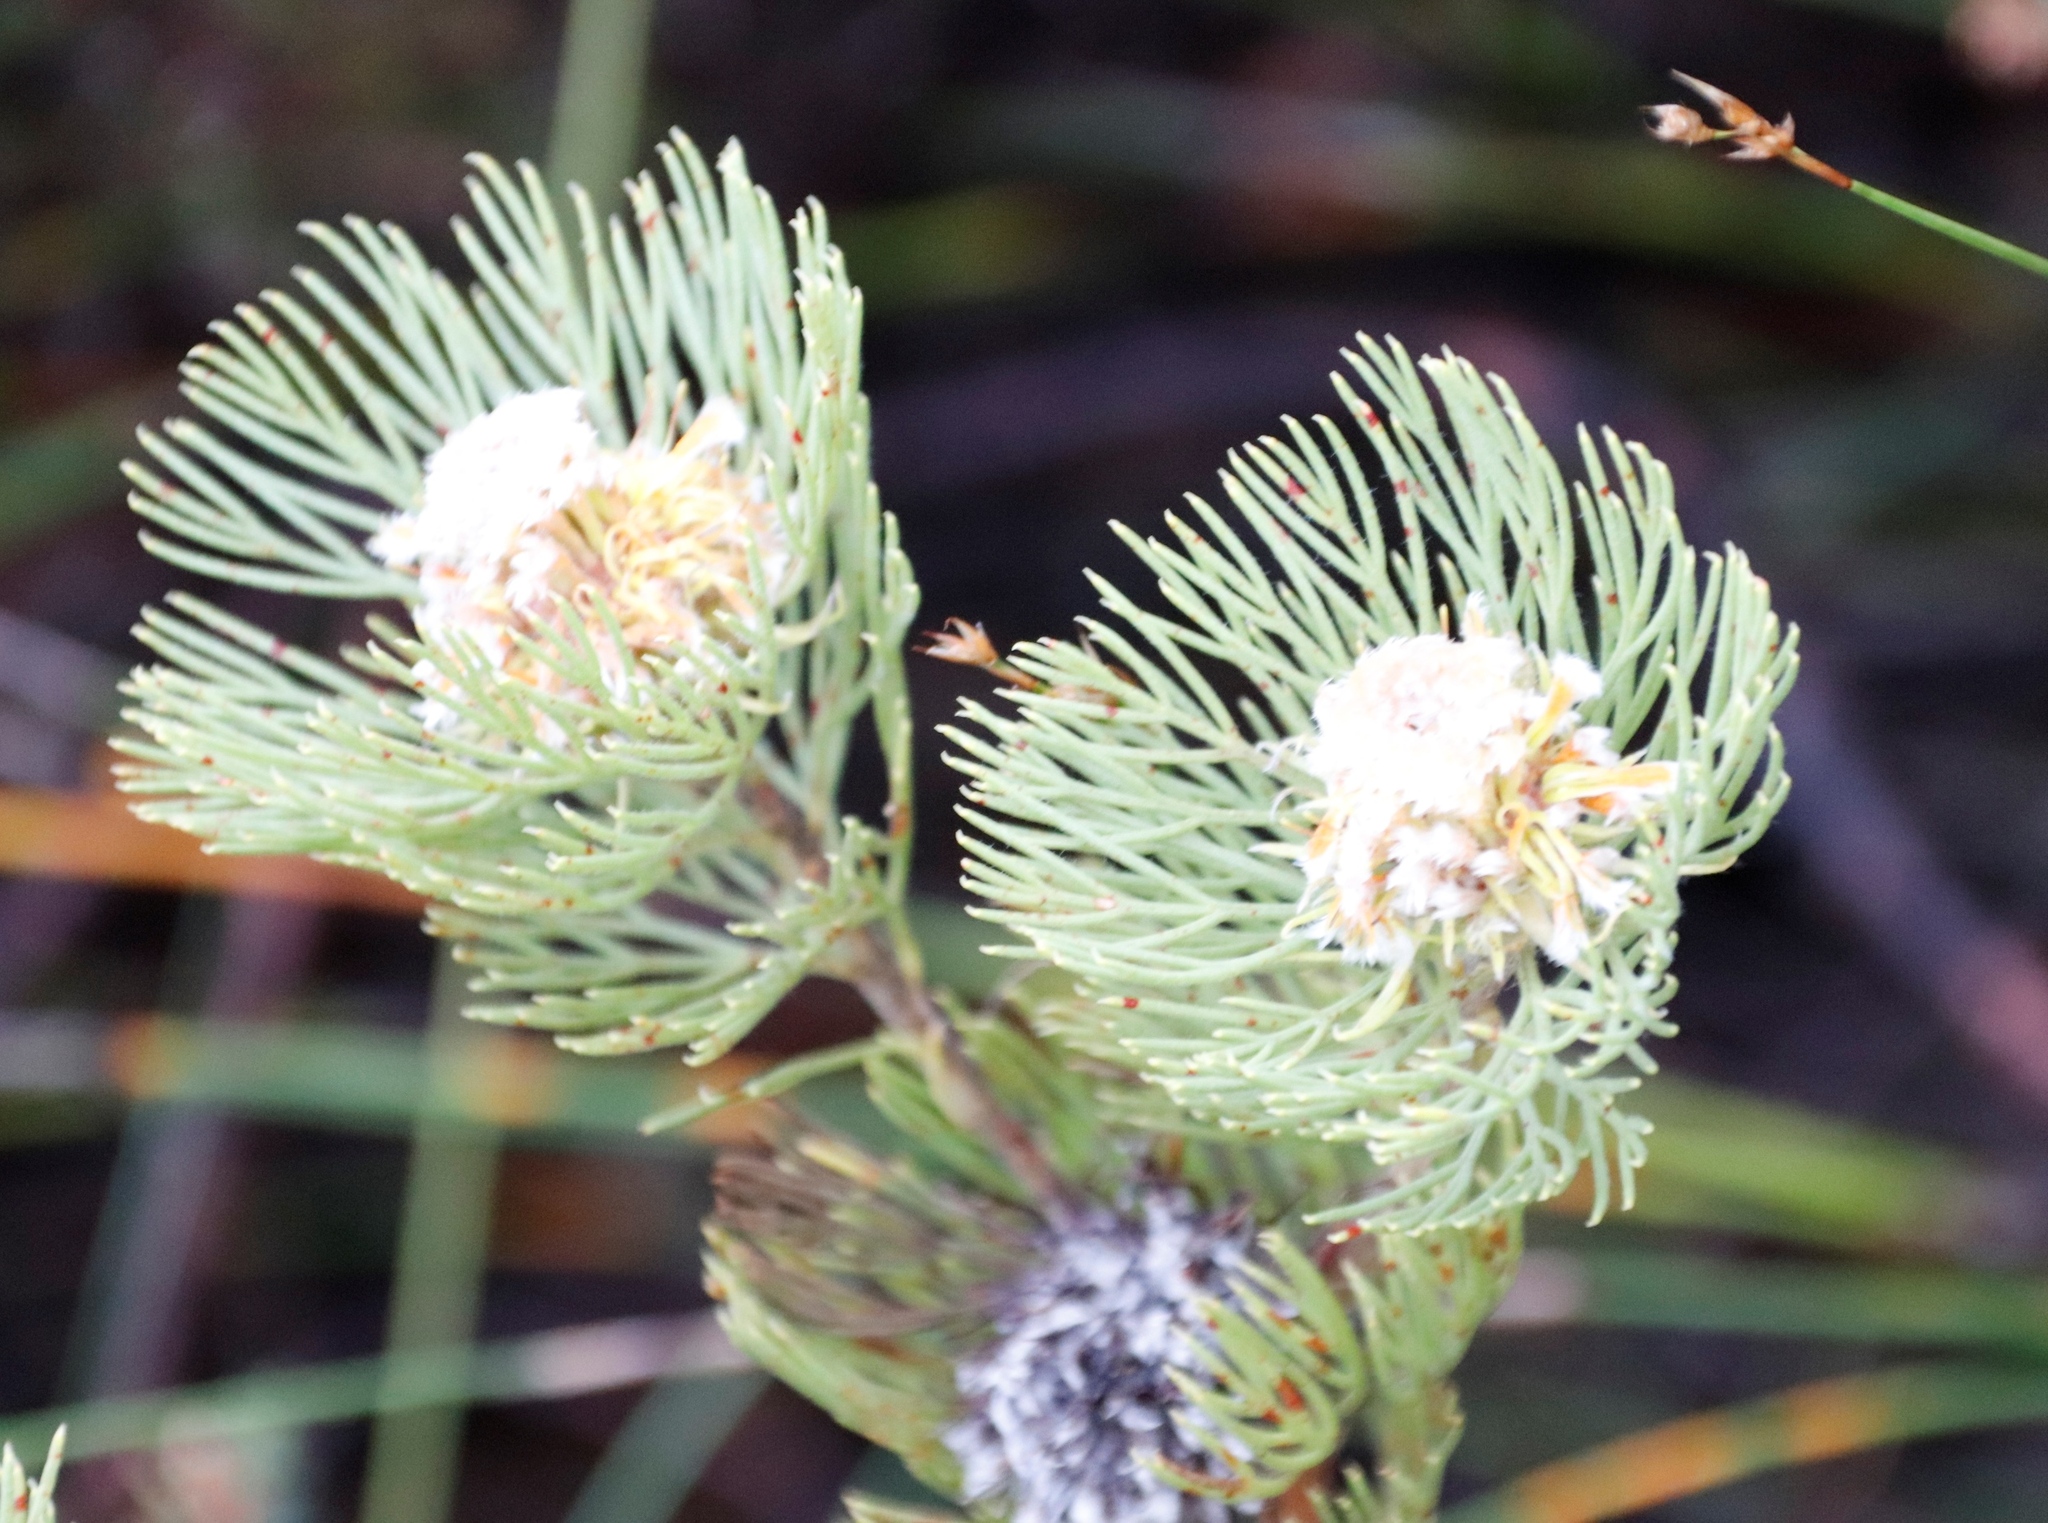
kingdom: Plantae
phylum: Tracheophyta
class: Magnoliopsida
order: Proteales
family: Proteaceae
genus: Serruria
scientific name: Serruria villosa
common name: Golden spiderhead
